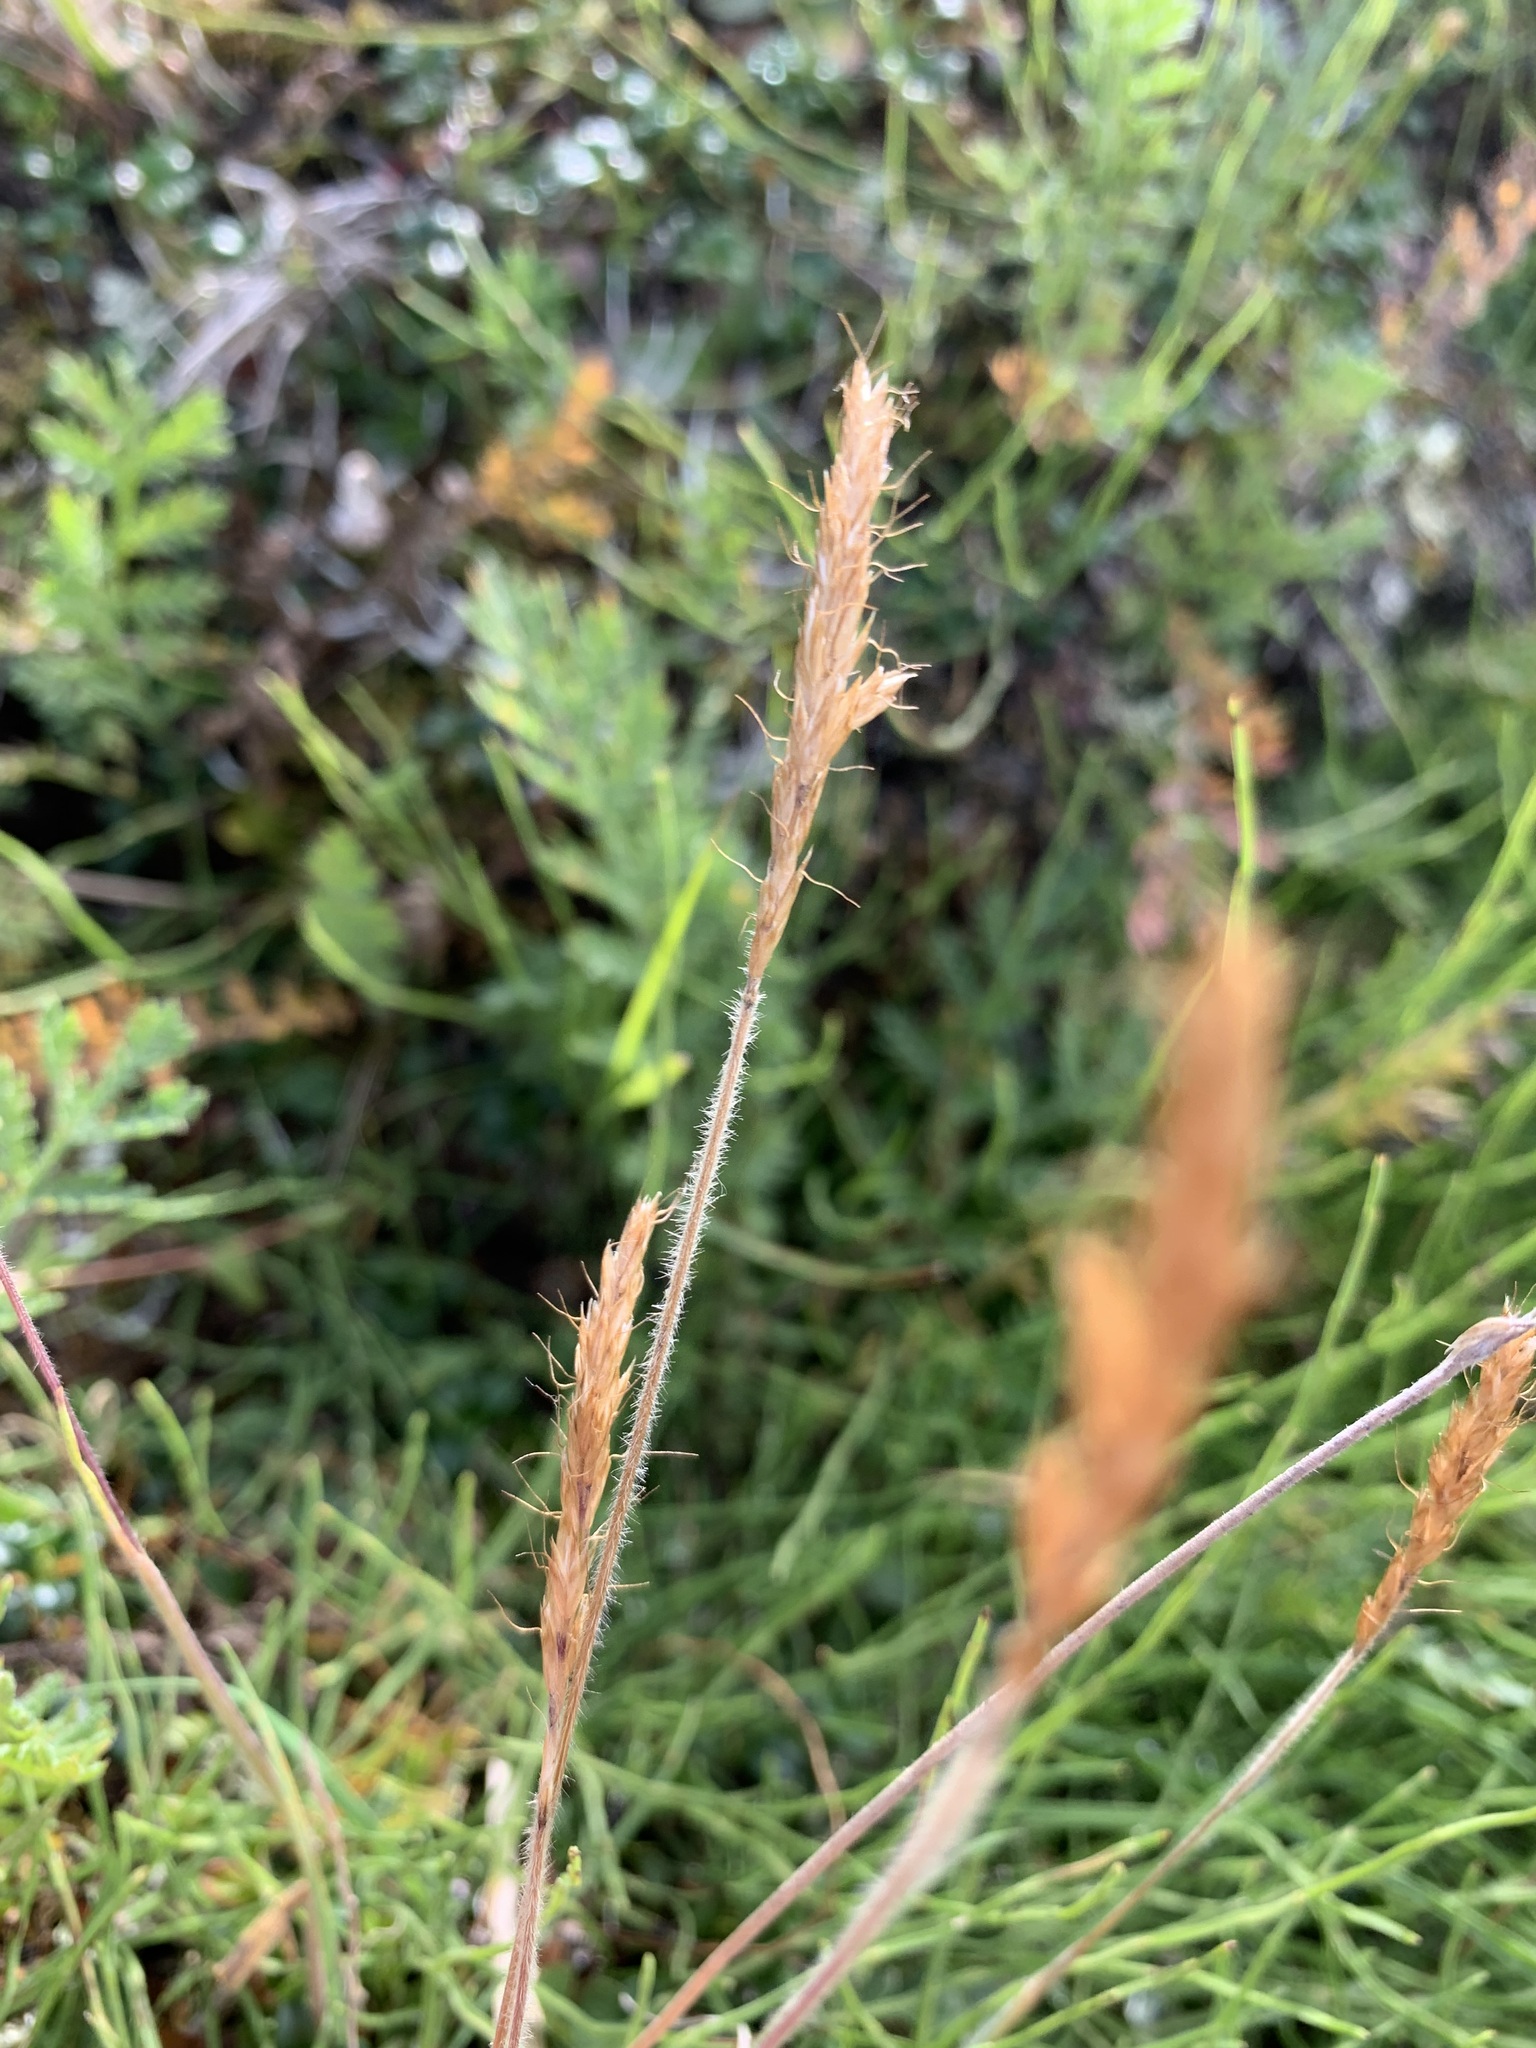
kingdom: Plantae
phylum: Tracheophyta
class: Liliopsida
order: Poales
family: Poaceae
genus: Koeleria
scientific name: Koeleria spicata
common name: Mountain trisetum
